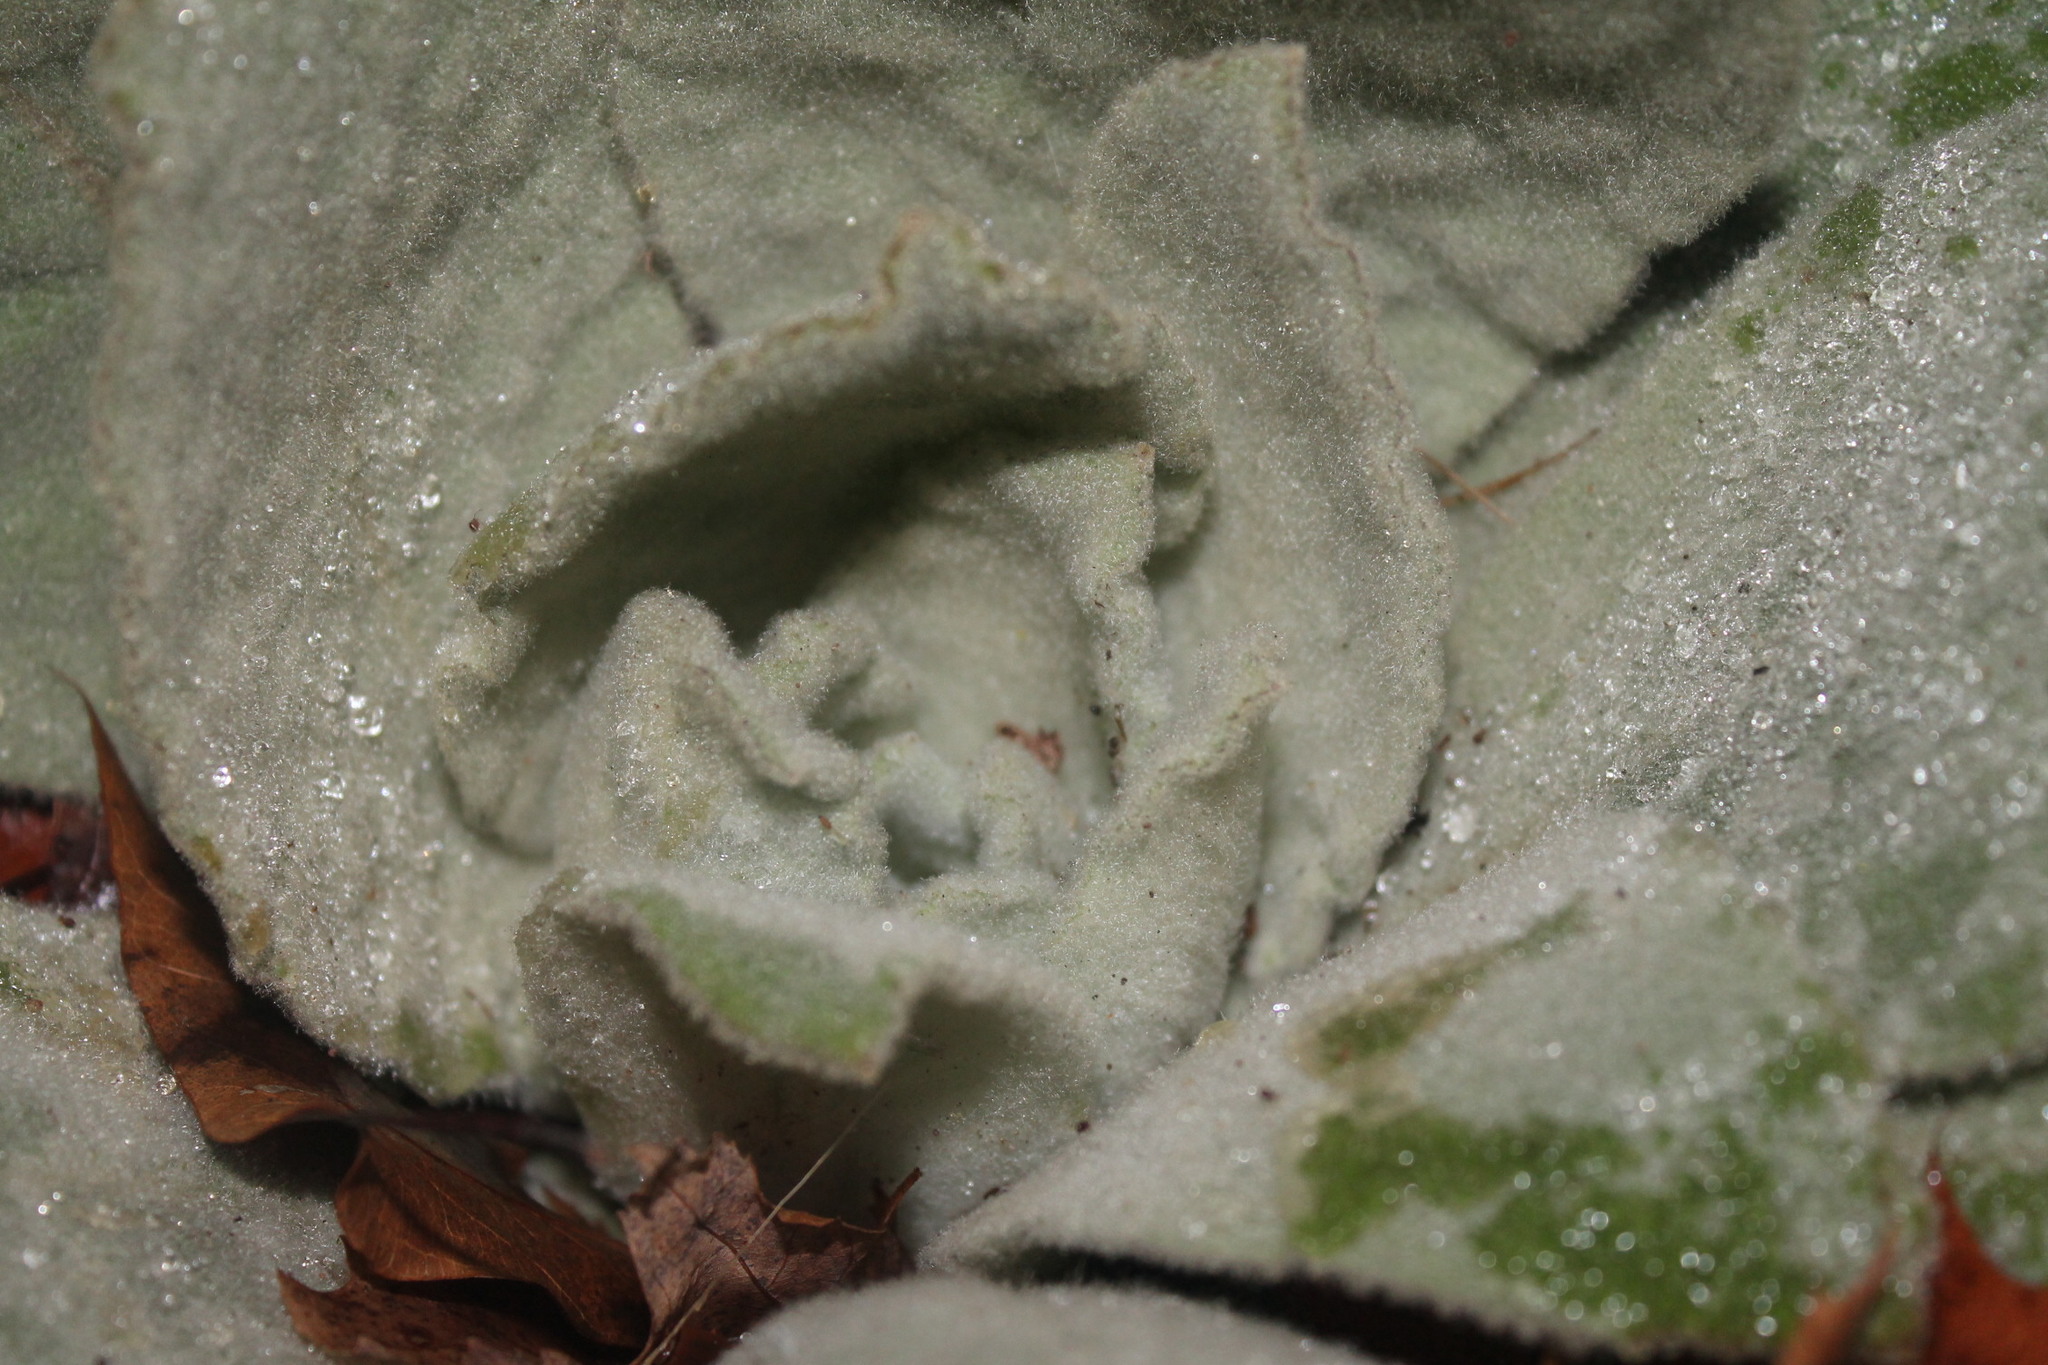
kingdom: Plantae
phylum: Tracheophyta
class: Magnoliopsida
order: Lamiales
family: Scrophulariaceae
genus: Verbascum
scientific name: Verbascum thapsus
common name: Common mullein
